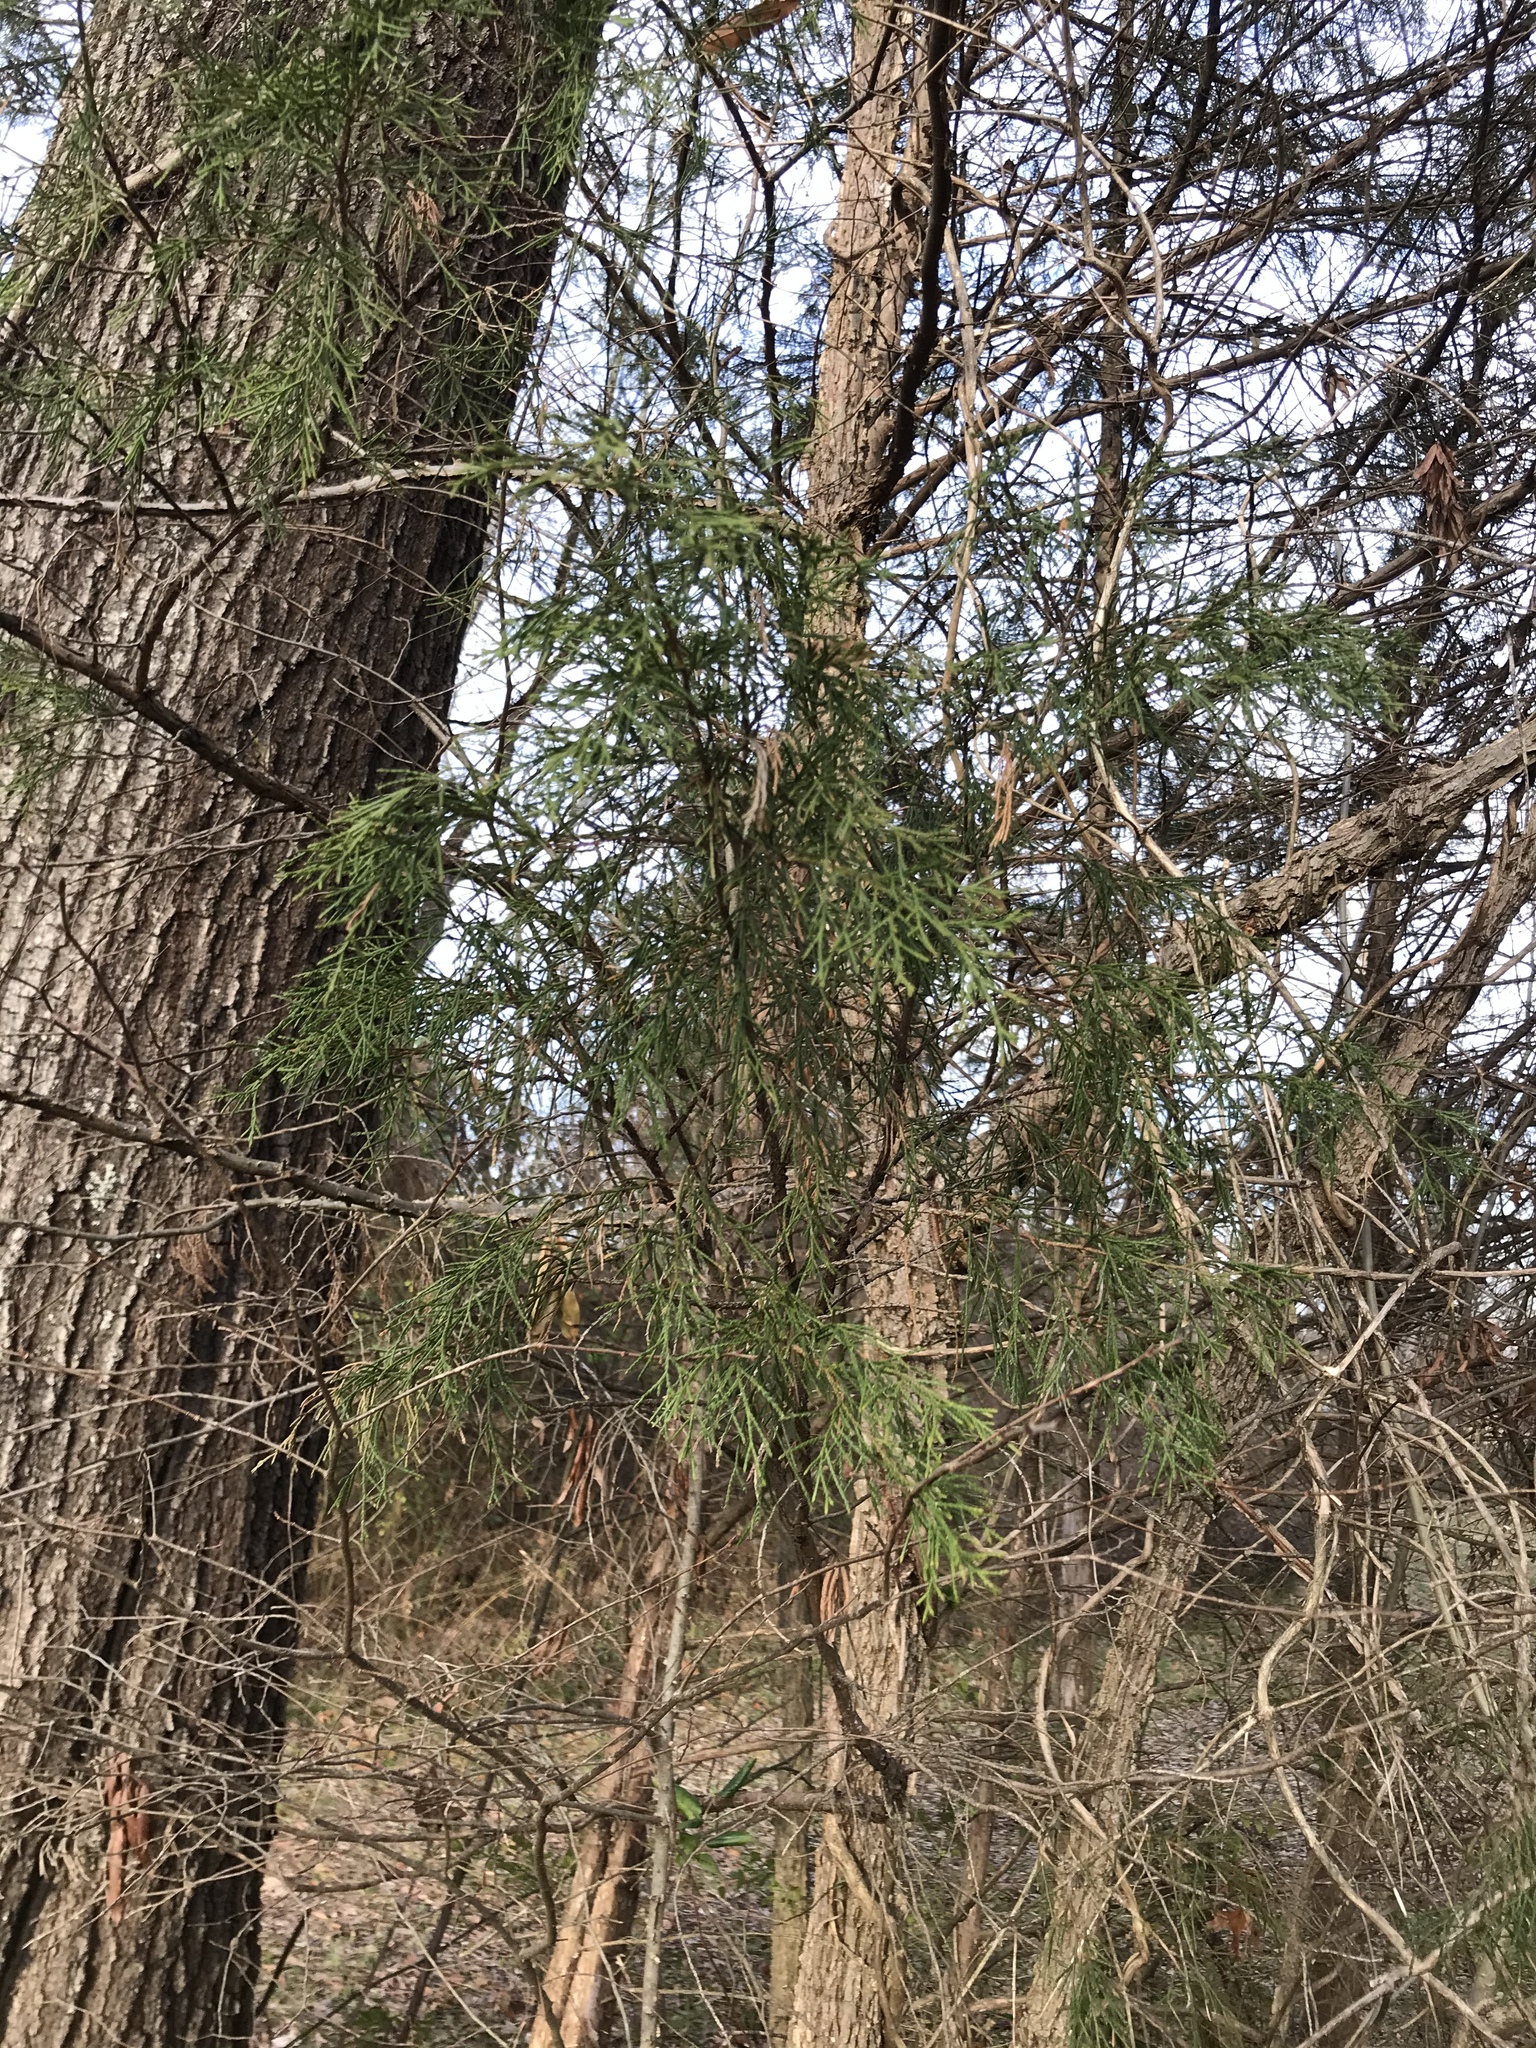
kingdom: Plantae
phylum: Tracheophyta
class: Pinopsida
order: Pinales
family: Cupressaceae
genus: Juniperus
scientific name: Juniperus virginiana
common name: Red juniper
